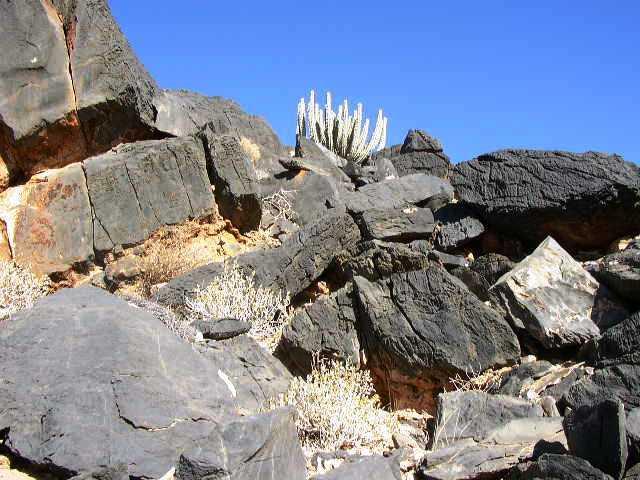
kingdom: Plantae
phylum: Tracheophyta
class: Magnoliopsida
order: Malpighiales
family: Euphorbiaceae
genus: Euphorbia
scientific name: Euphorbia virosa
